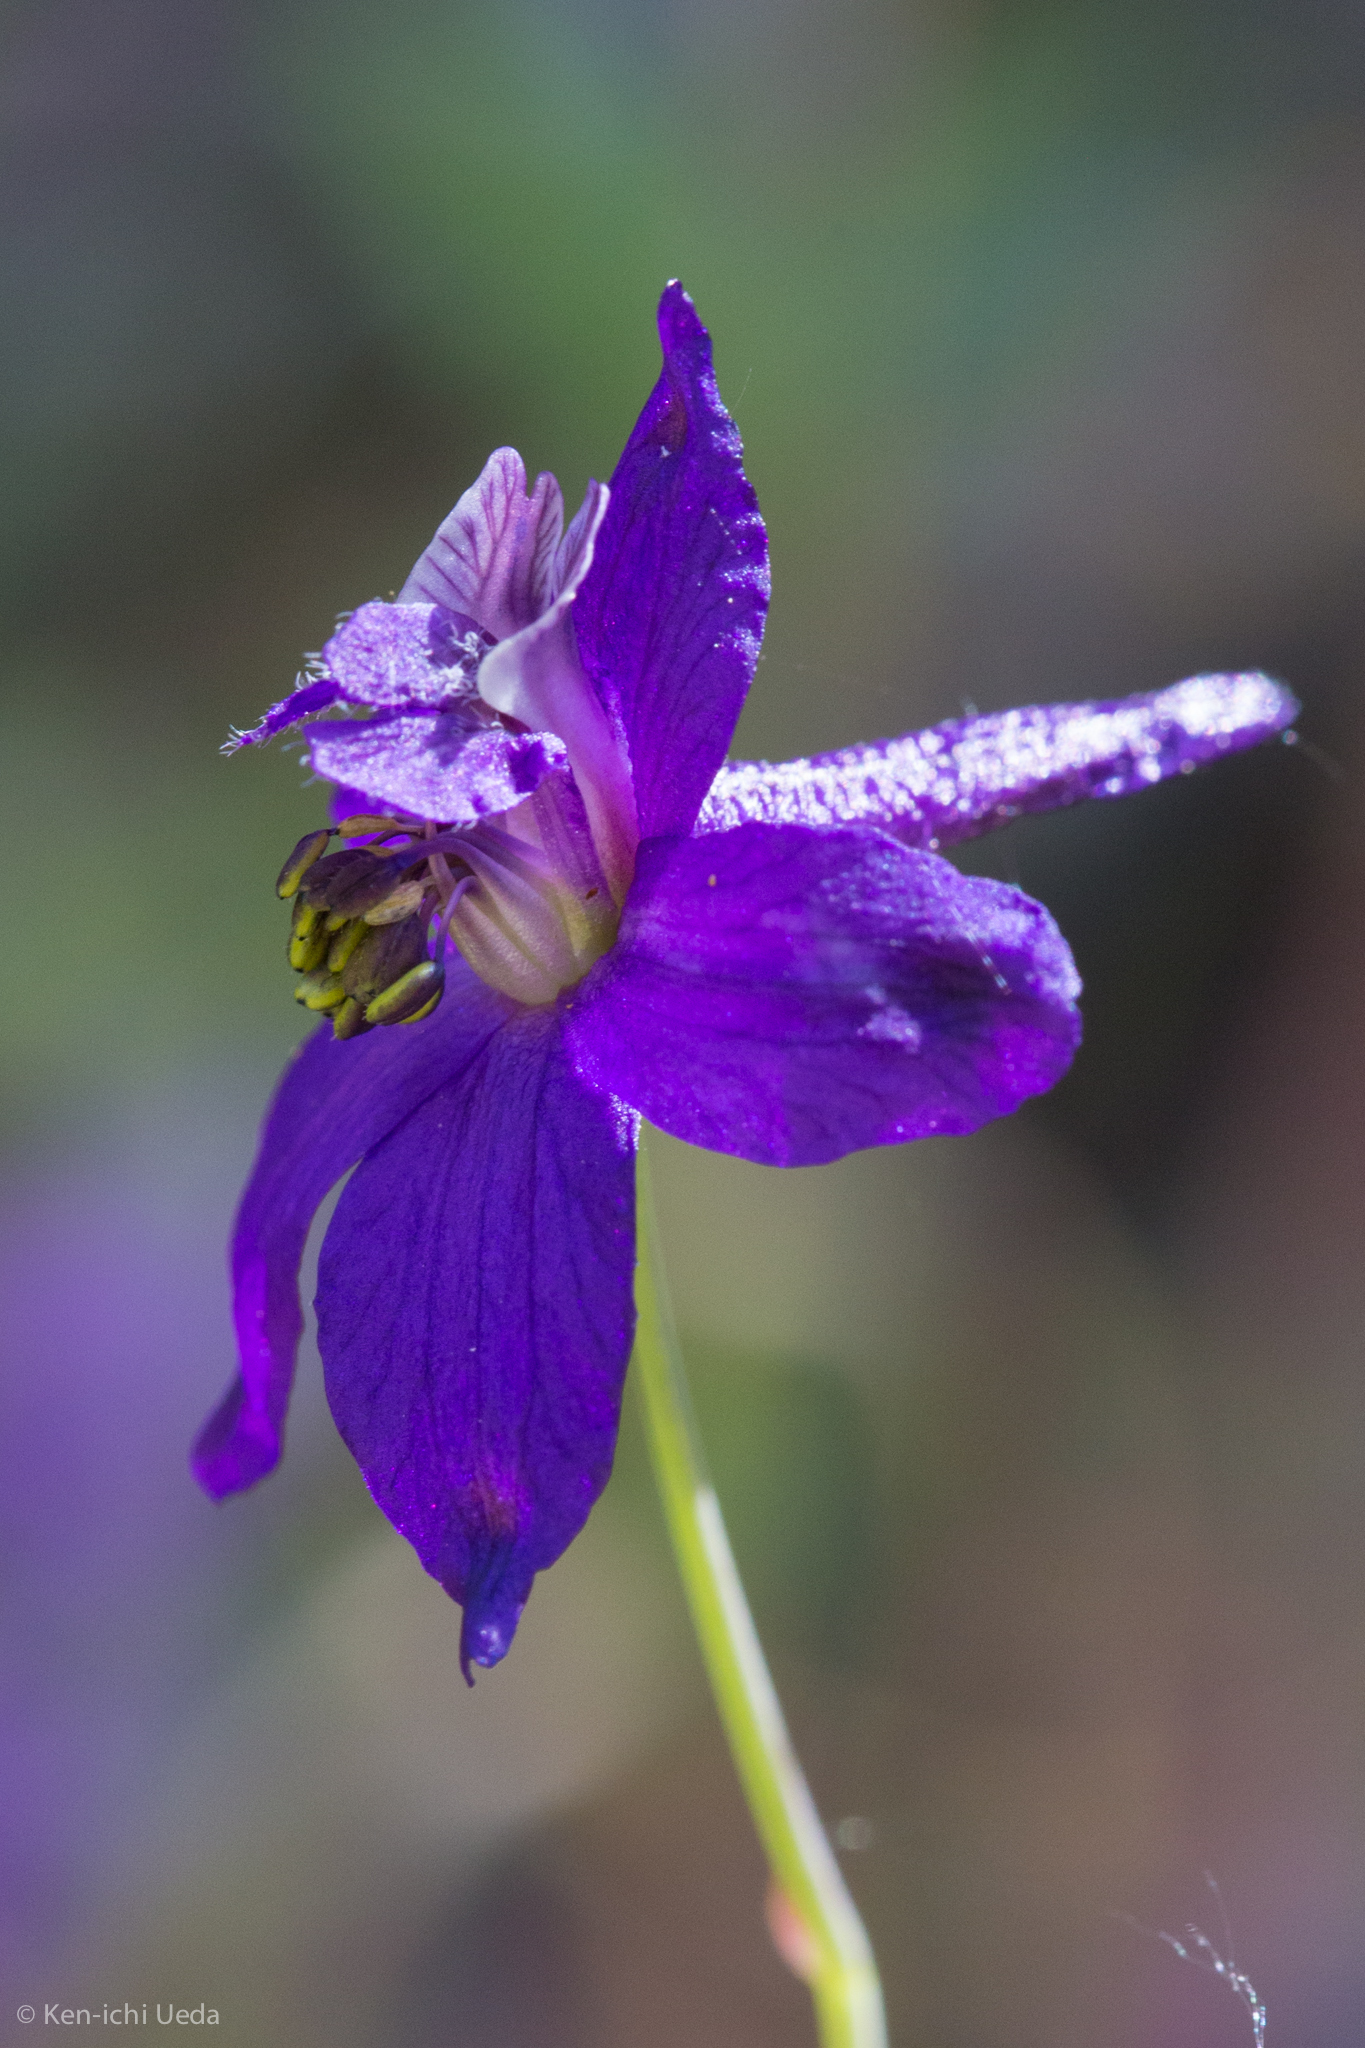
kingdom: Plantae
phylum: Tracheophyta
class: Magnoliopsida
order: Ranunculales
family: Ranunculaceae
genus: Delphinium
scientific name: Delphinium patens
